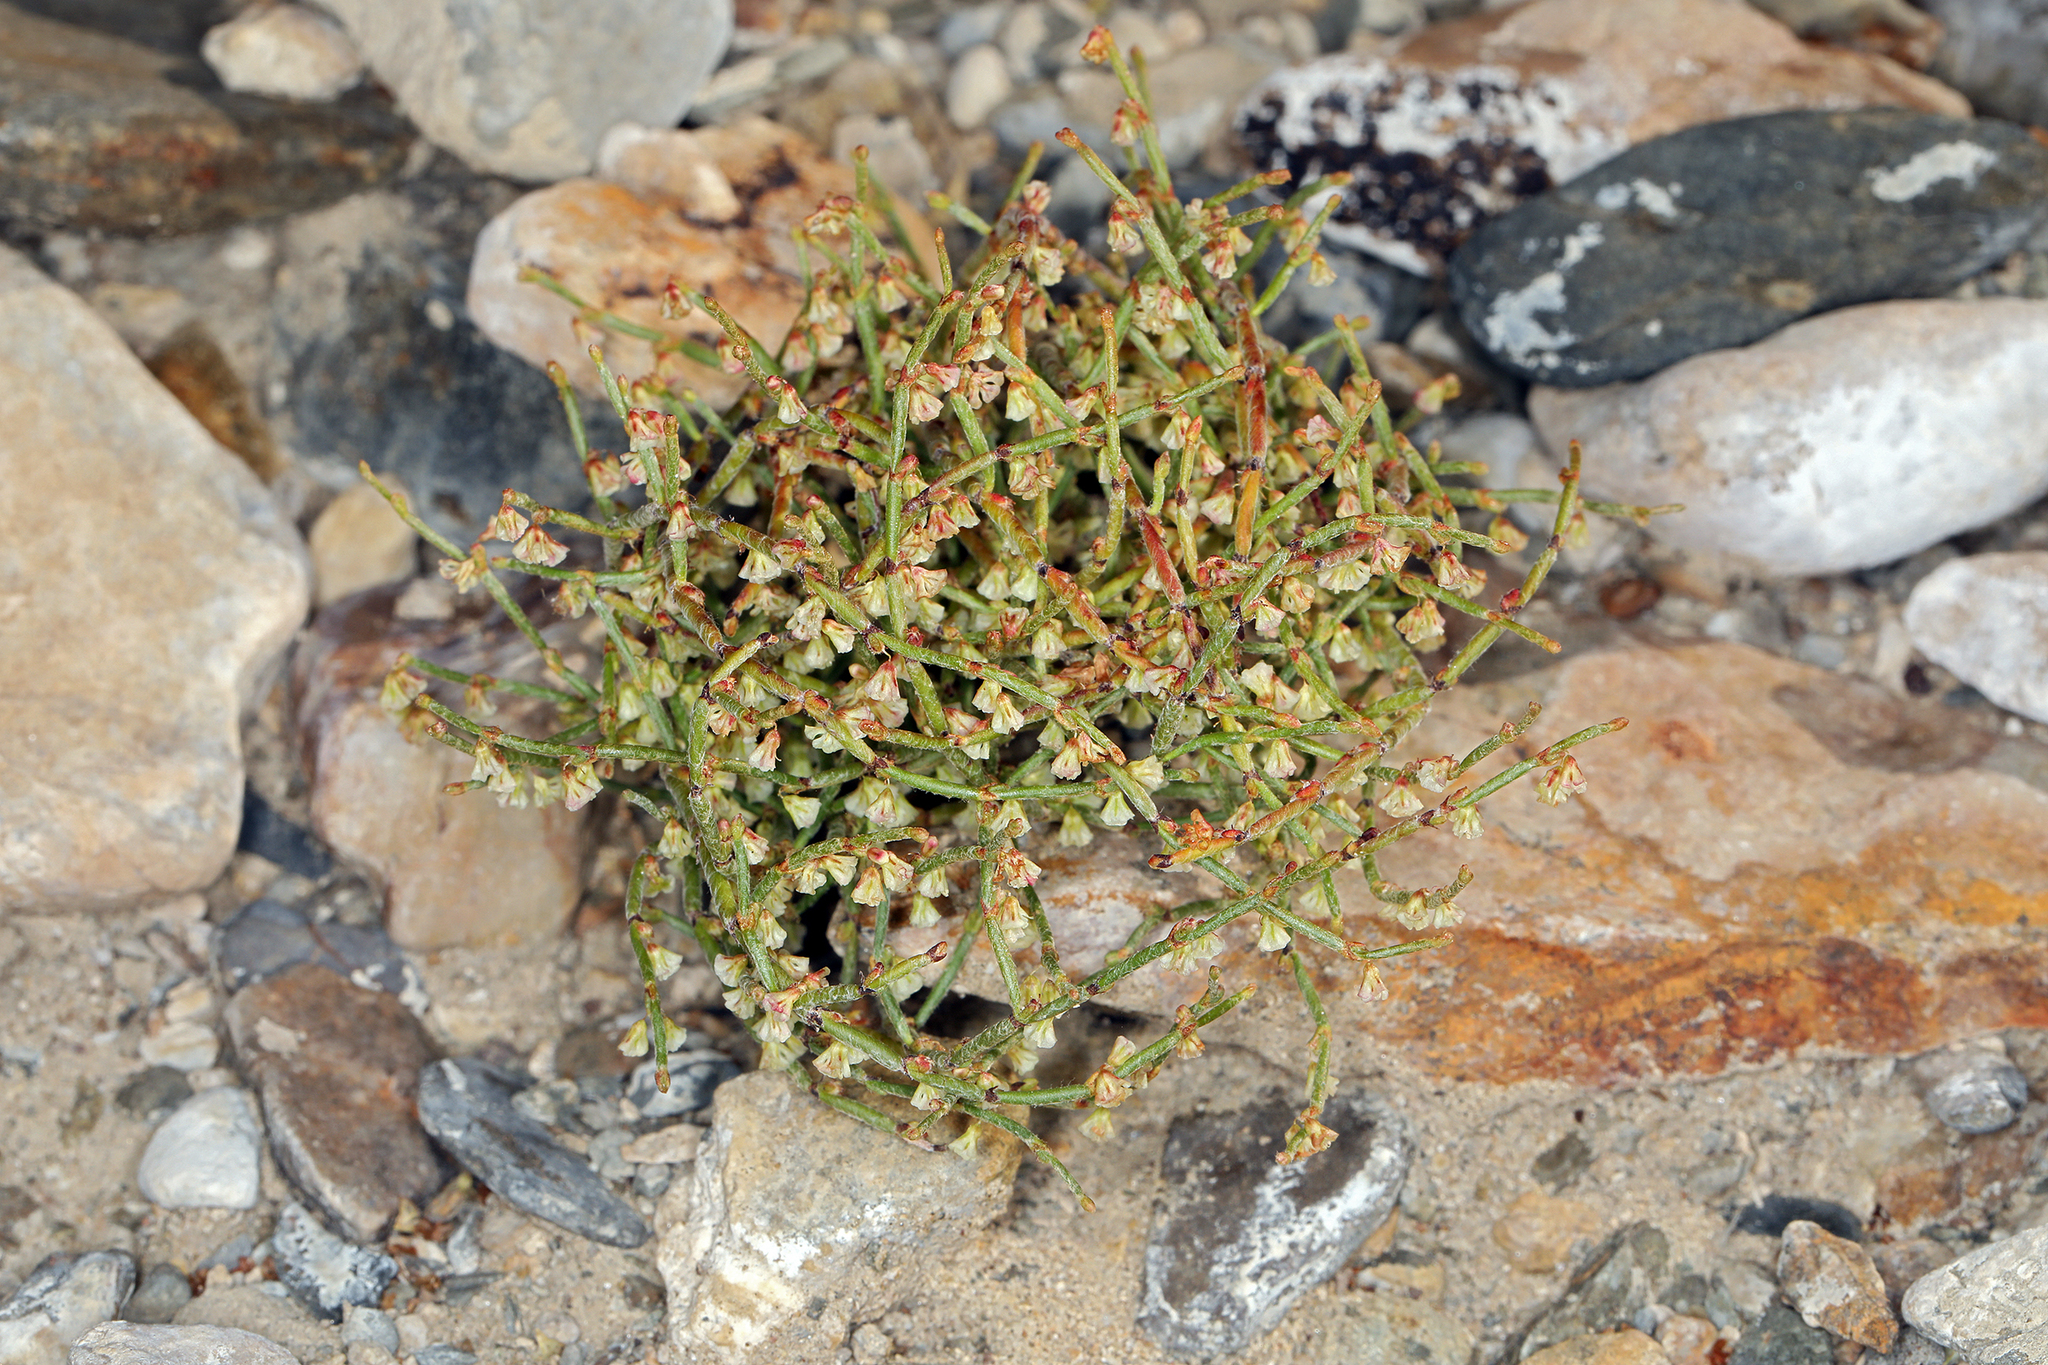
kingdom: Plantae
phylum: Tracheophyta
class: Magnoliopsida
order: Caryophyllales
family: Polygonaceae
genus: Eriogonum
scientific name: Eriogonum nidularium
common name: Bird's-nest wild buckwheat
